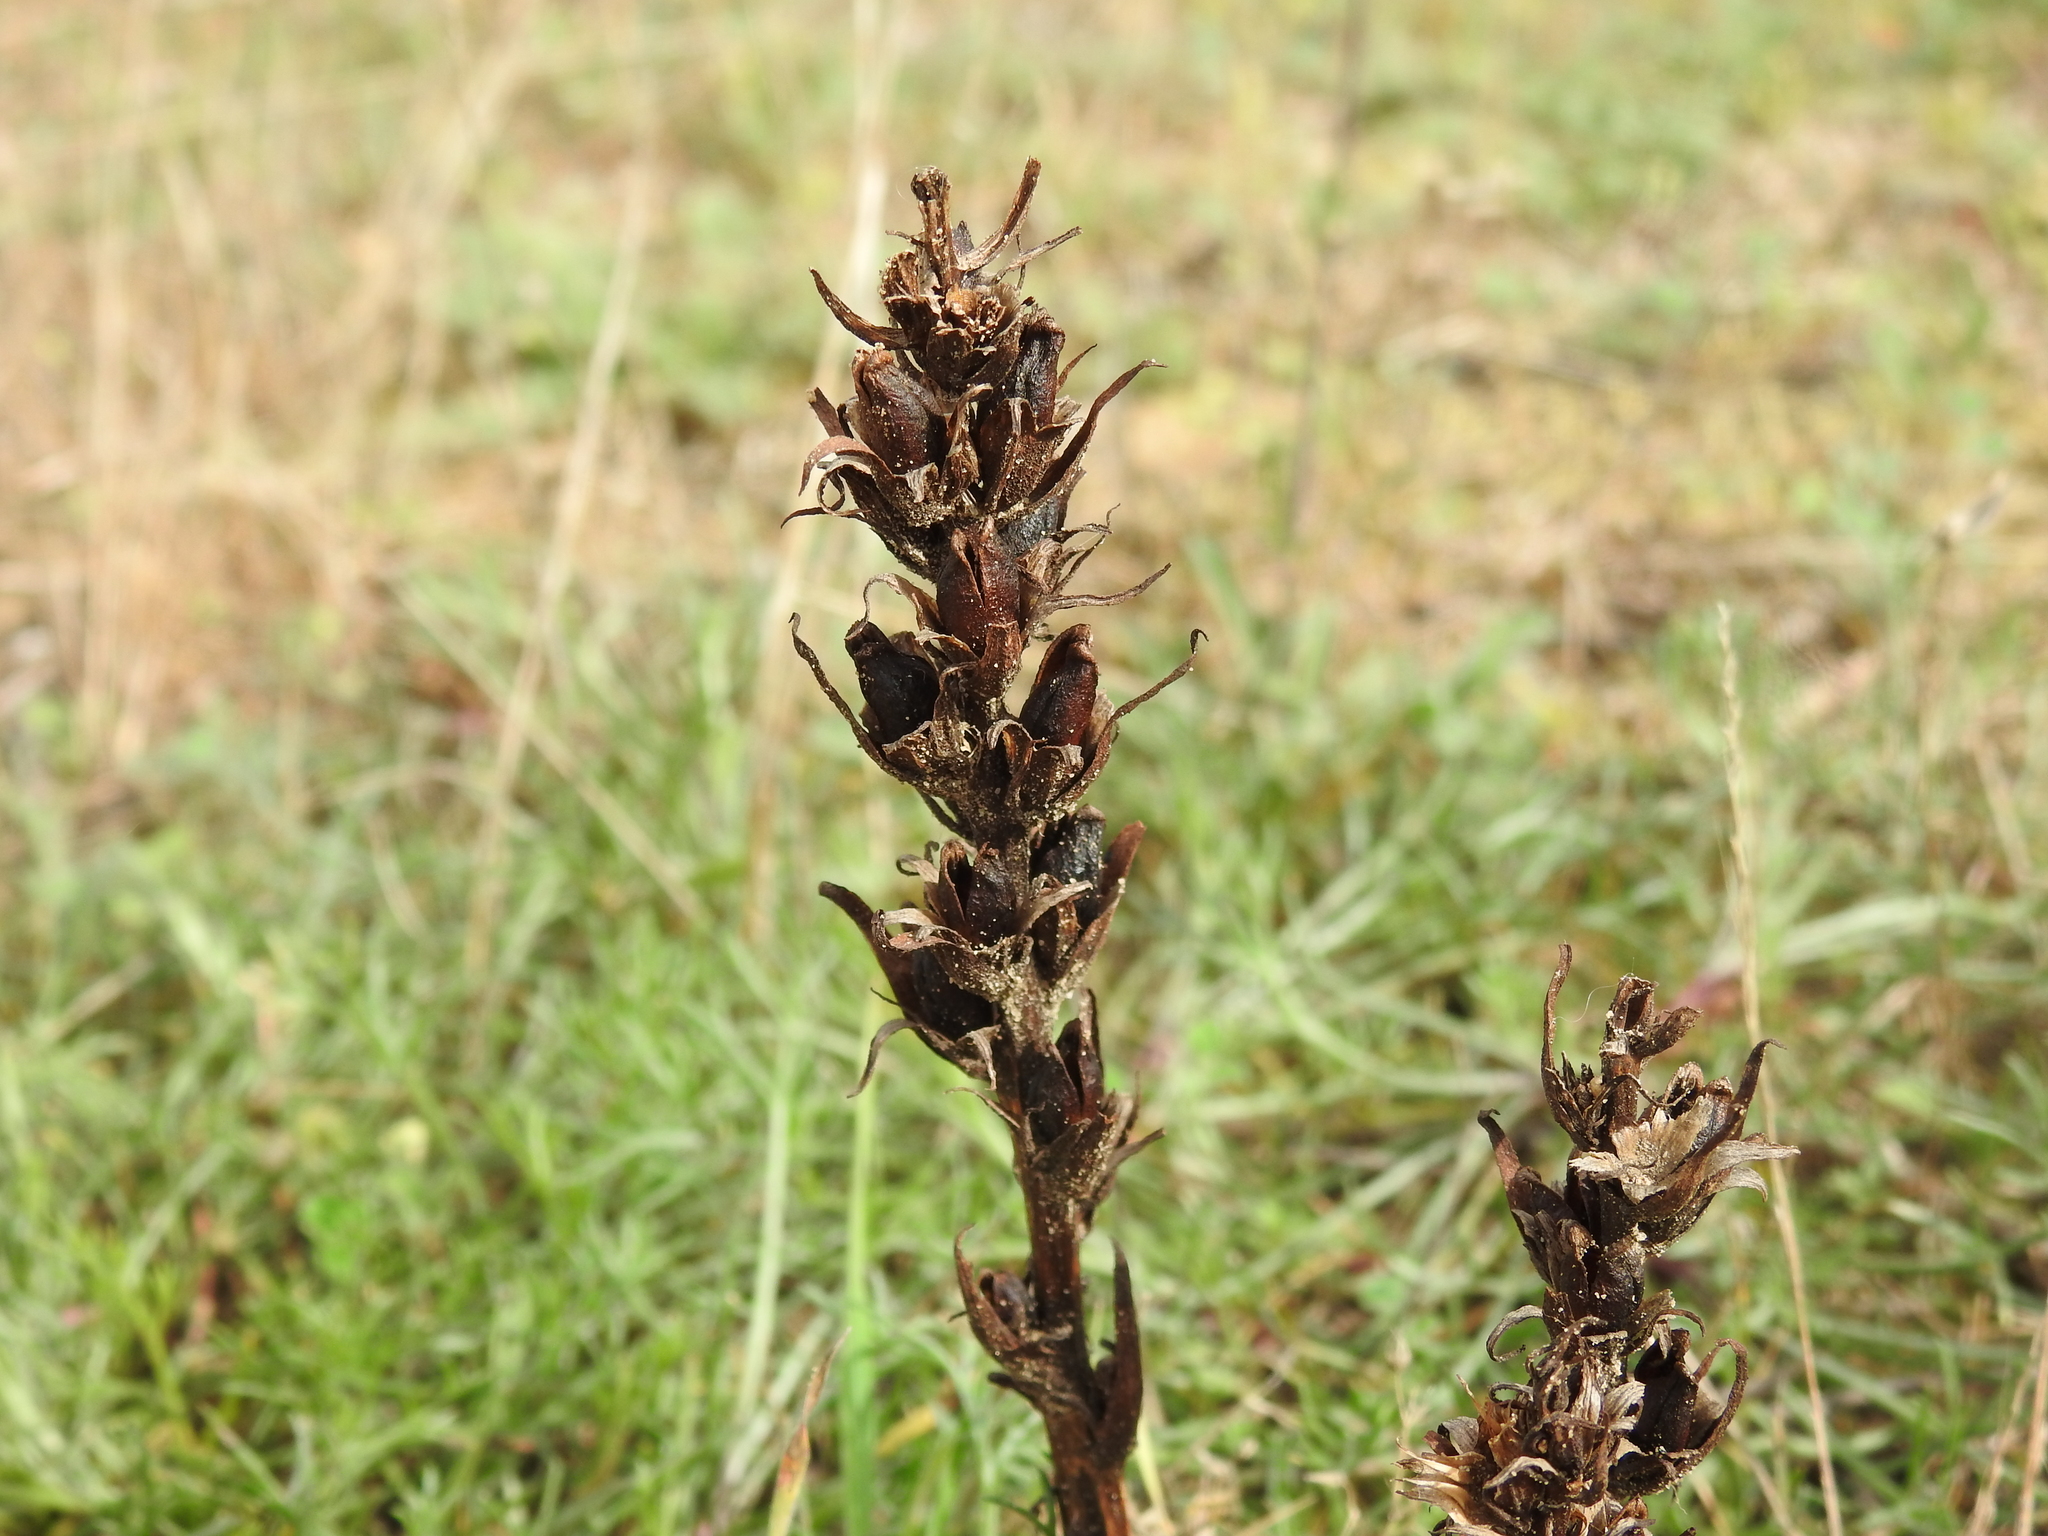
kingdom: Plantae
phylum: Tracheophyta
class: Magnoliopsida
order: Lamiales
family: Orobanchaceae
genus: Phelipanche
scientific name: Phelipanche arenaria
